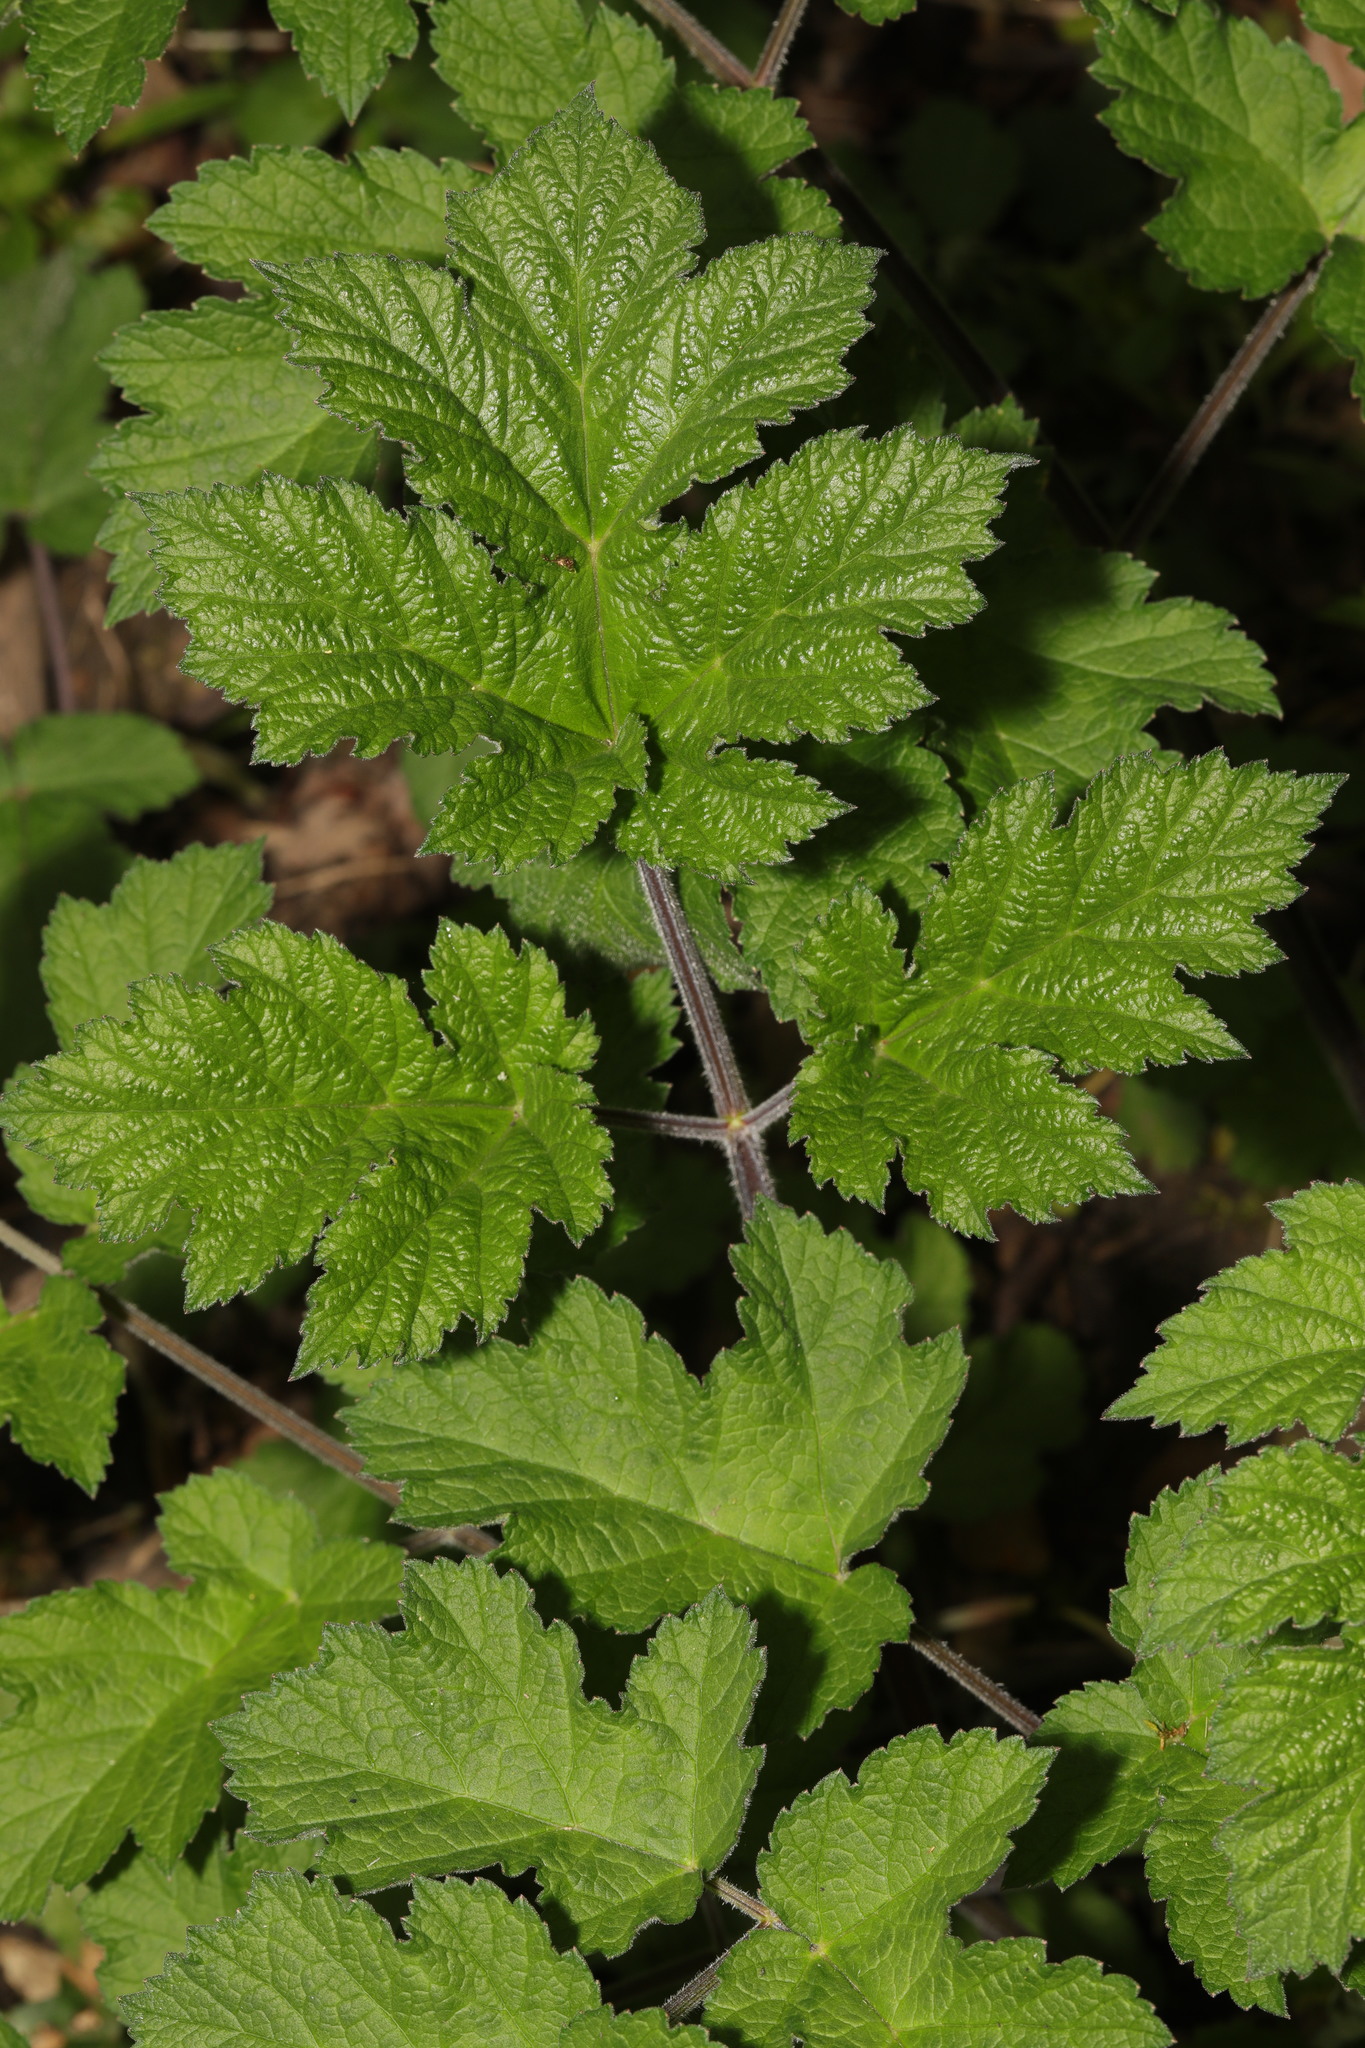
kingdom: Plantae
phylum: Tracheophyta
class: Magnoliopsida
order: Apiales
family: Apiaceae
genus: Heracleum
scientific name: Heracleum sphondylium
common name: Hogweed
